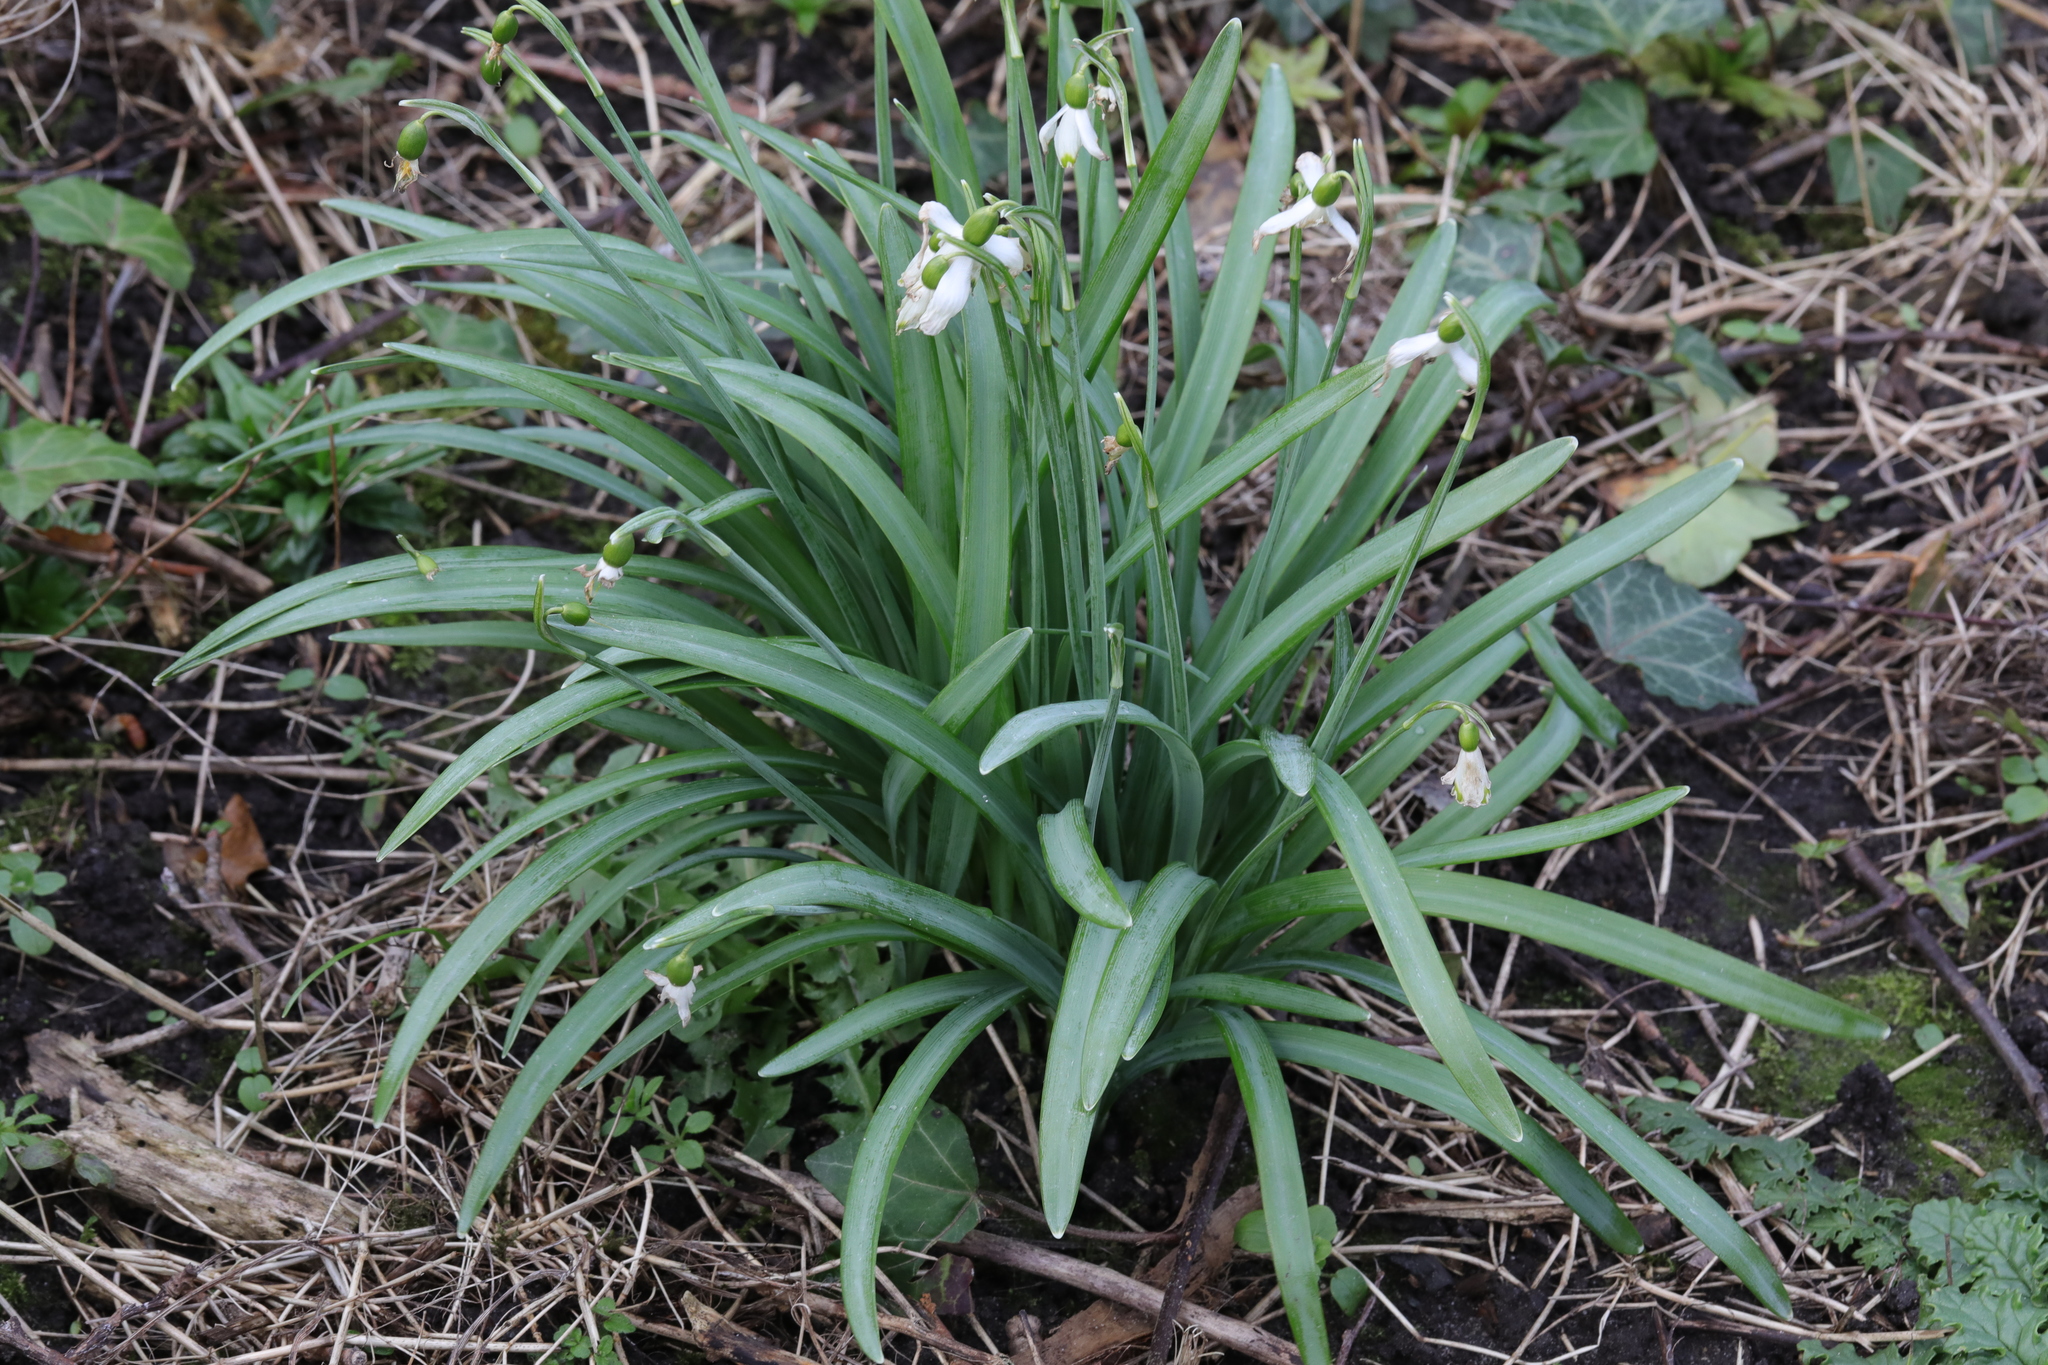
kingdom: Plantae
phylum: Tracheophyta
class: Liliopsida
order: Asparagales
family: Amaryllidaceae
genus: Galanthus
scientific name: Galanthus nivalis
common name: Snowdrop
